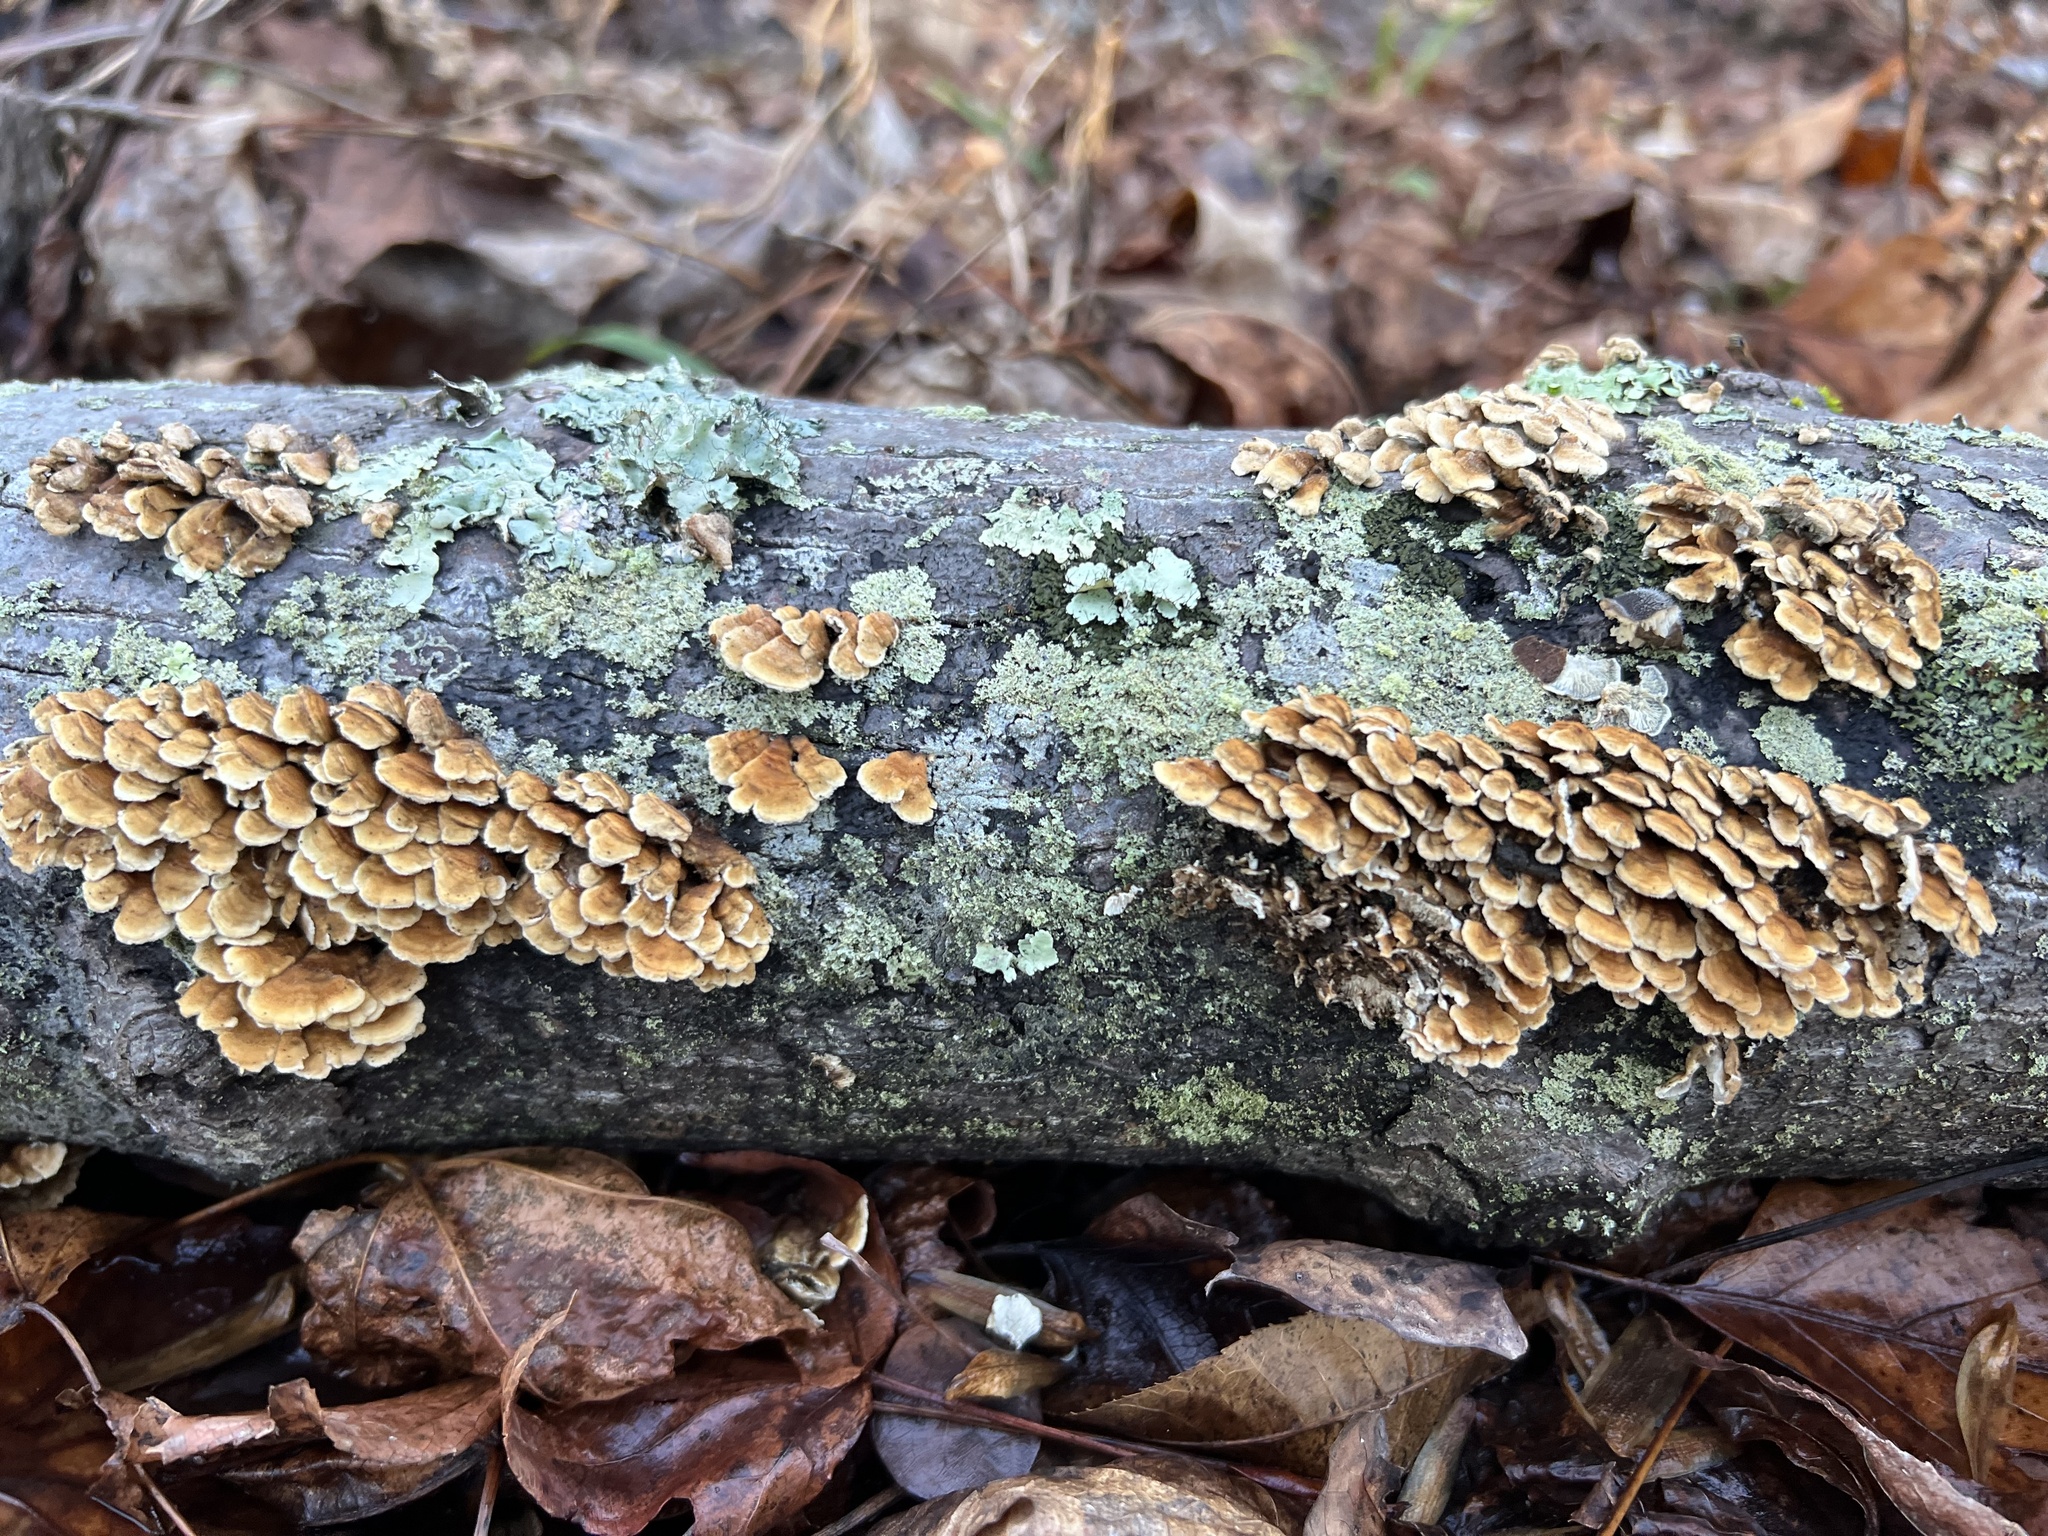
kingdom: Fungi
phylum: Basidiomycota
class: Agaricomycetes
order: Amylocorticiales
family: Amylocorticiaceae
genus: Plicaturopsis
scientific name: Plicaturopsis crispa
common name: Crimped gill
